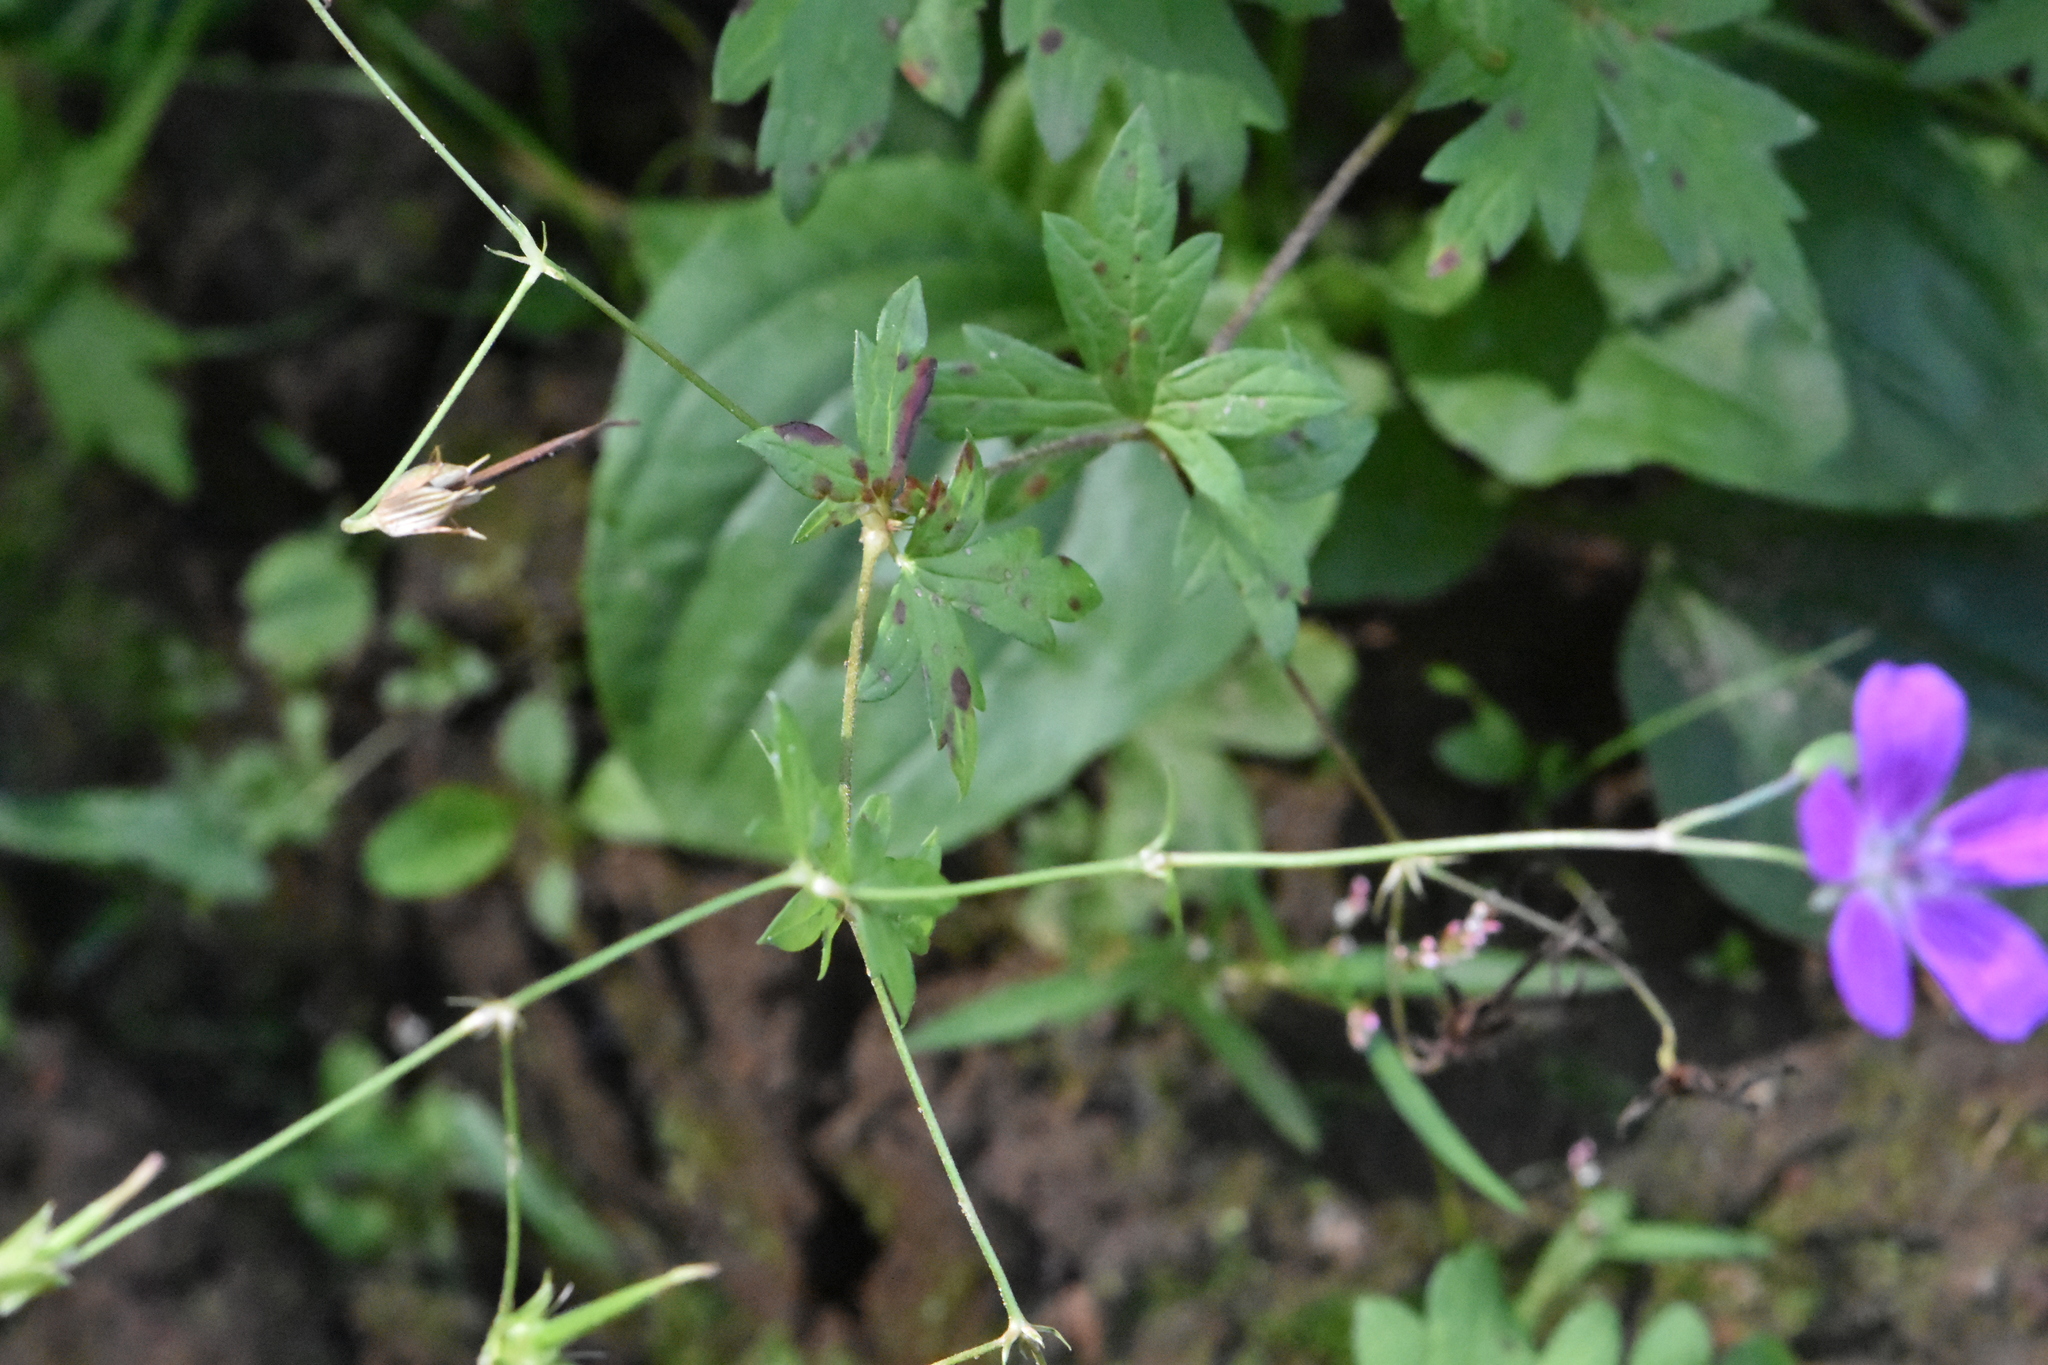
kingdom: Plantae
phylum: Tracheophyta
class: Magnoliopsida
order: Geraniales
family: Geraniaceae
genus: Geranium
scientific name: Geranium palustre
